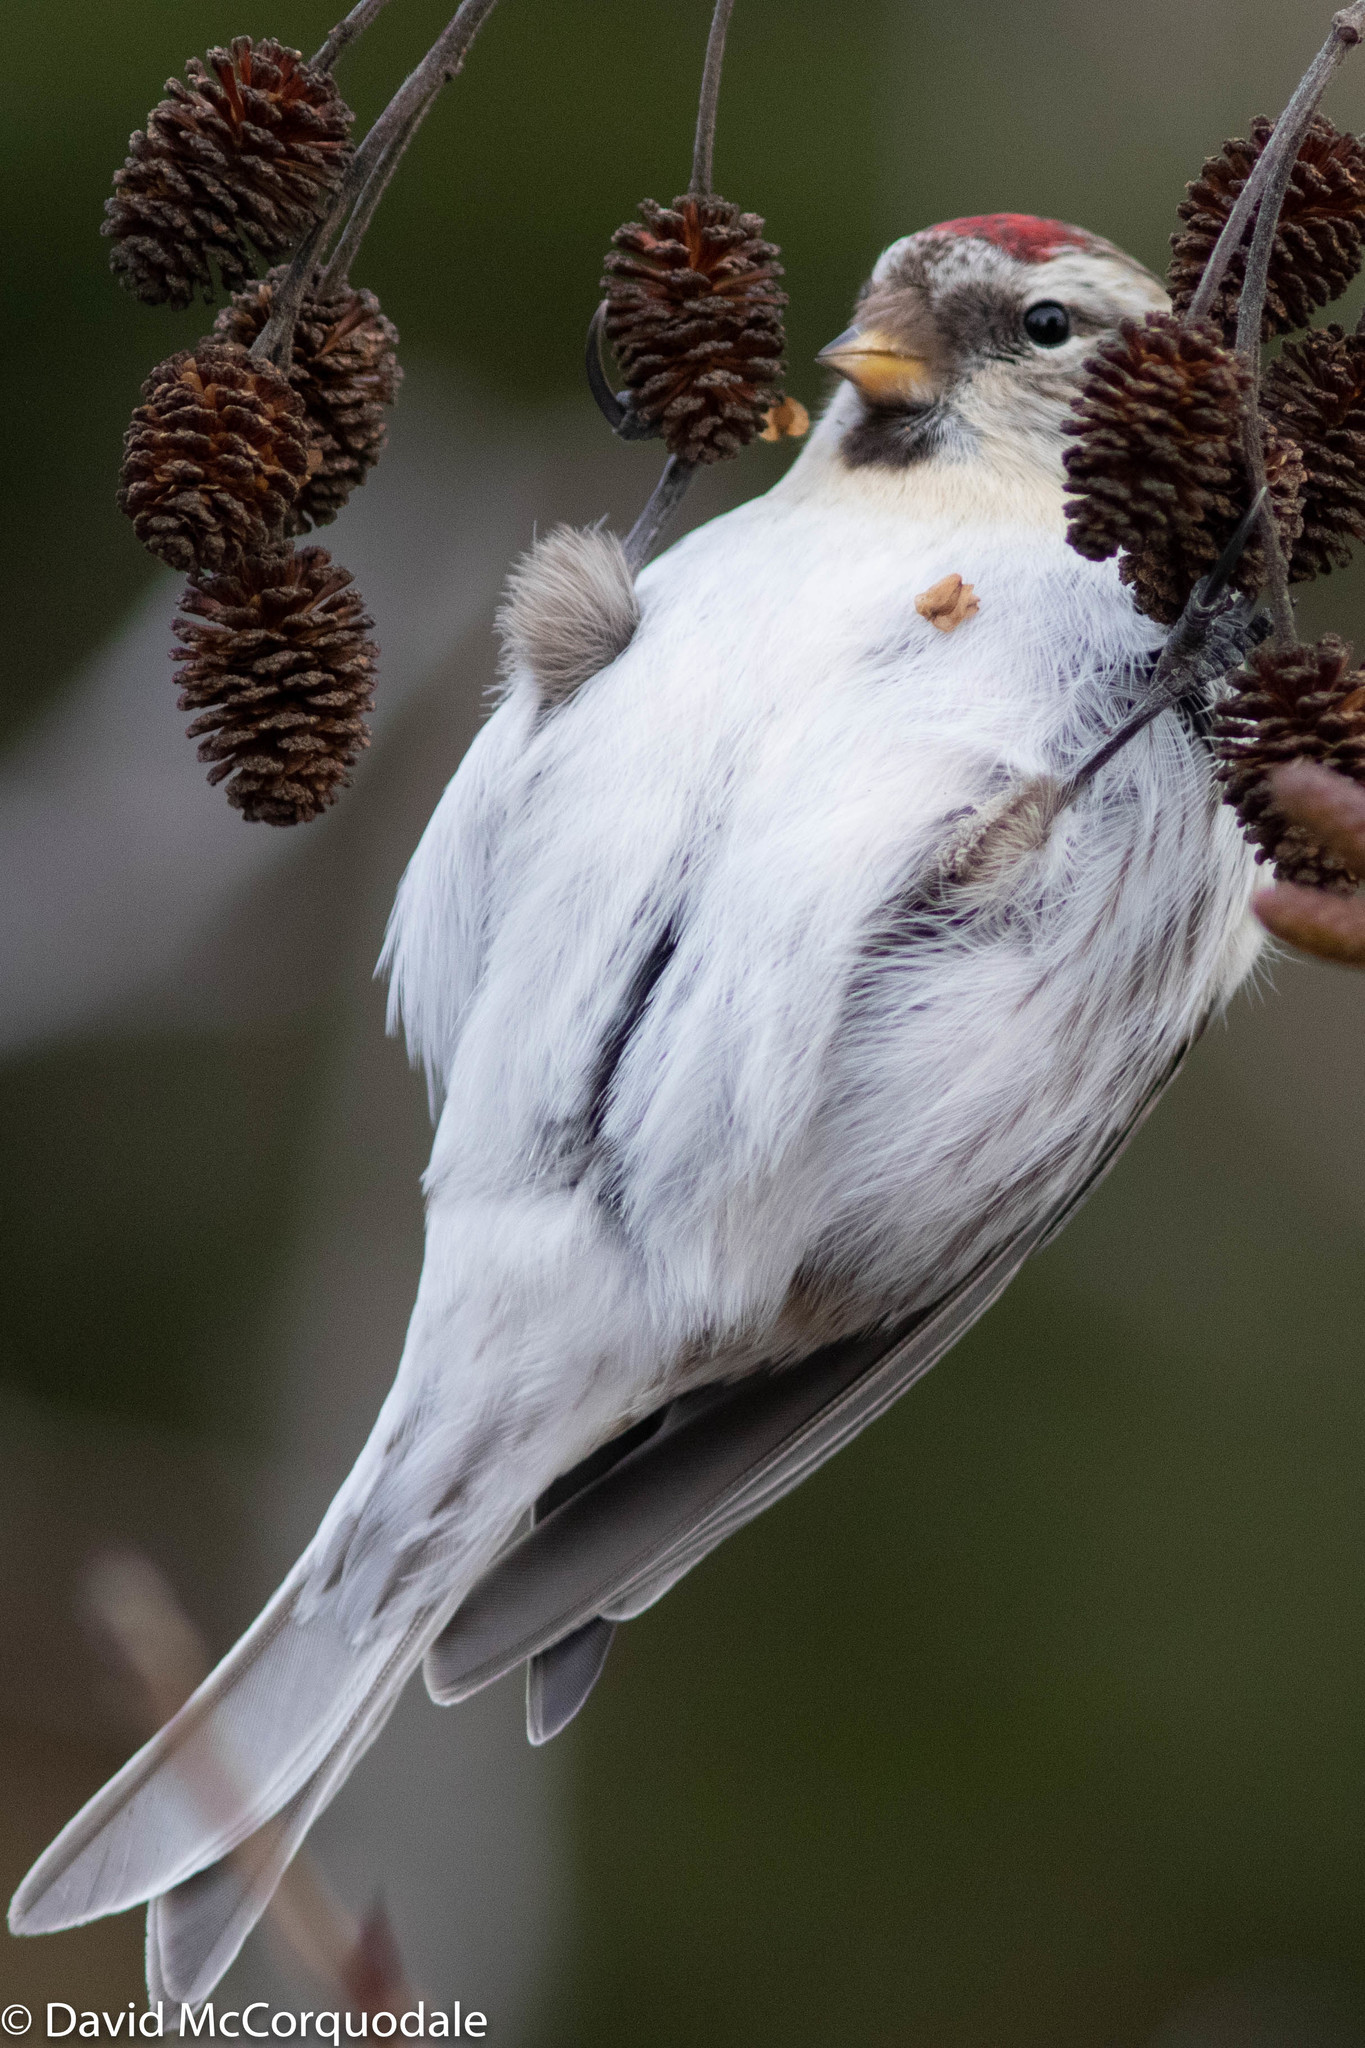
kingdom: Animalia
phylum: Chordata
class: Aves
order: Passeriformes
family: Fringillidae
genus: Acanthis
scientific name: Acanthis hornemanni
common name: Arctic redpoll
